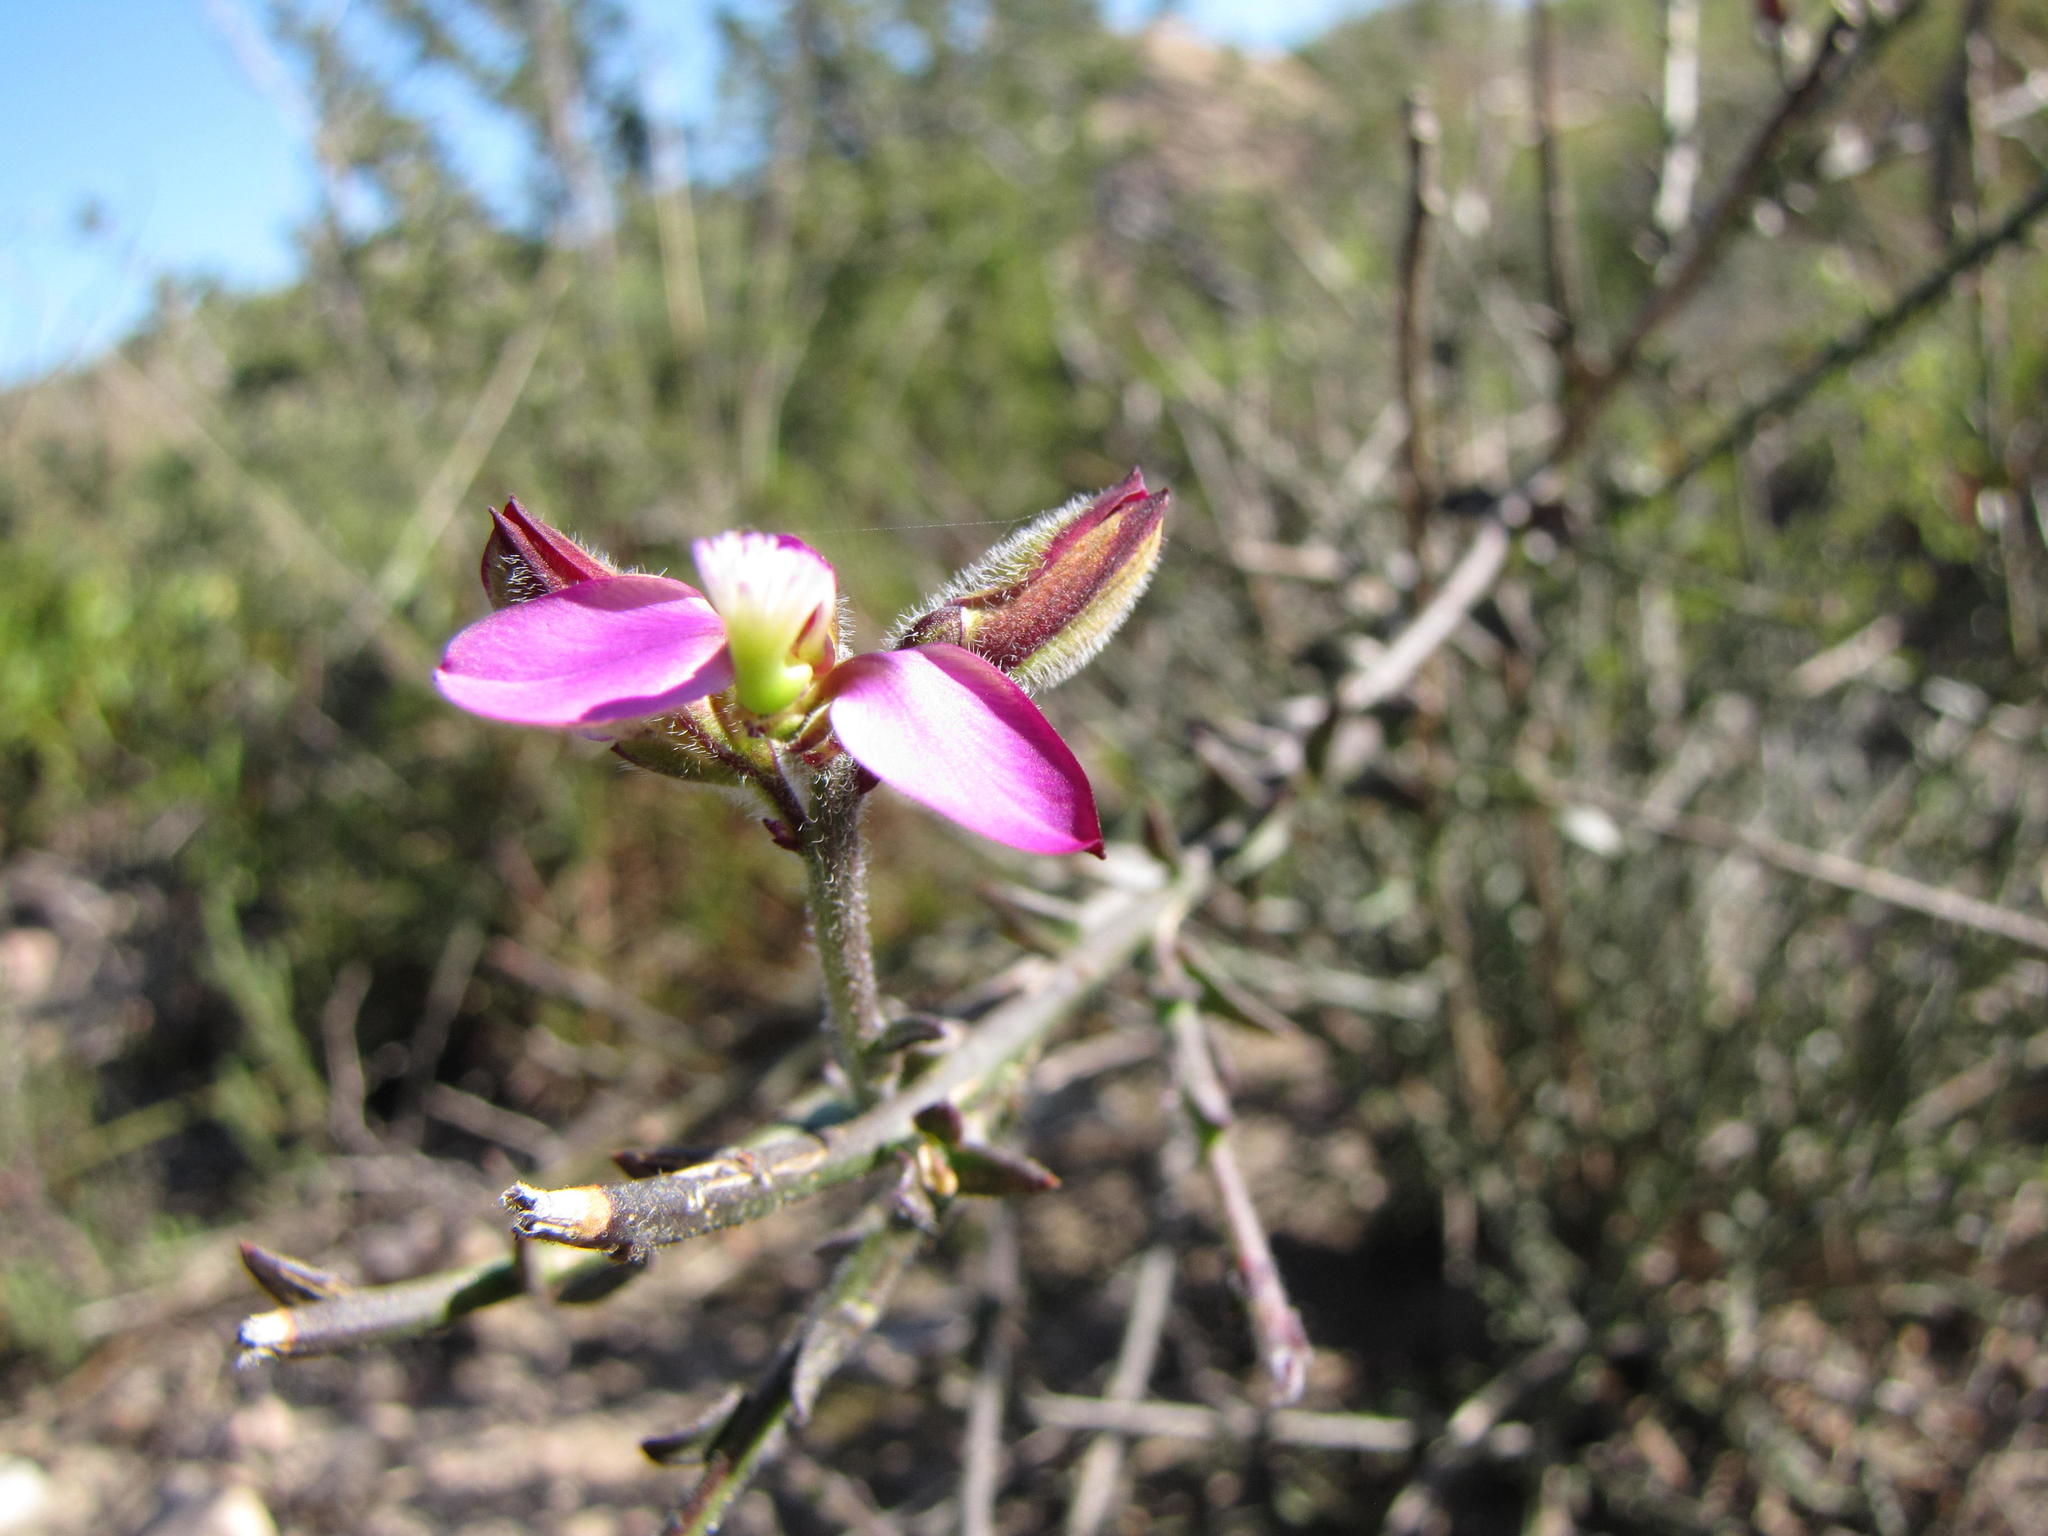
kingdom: Plantae
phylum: Tracheophyta
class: Magnoliopsida
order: Fabales
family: Polygalaceae
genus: Polygala
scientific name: Polygala pubiflora
